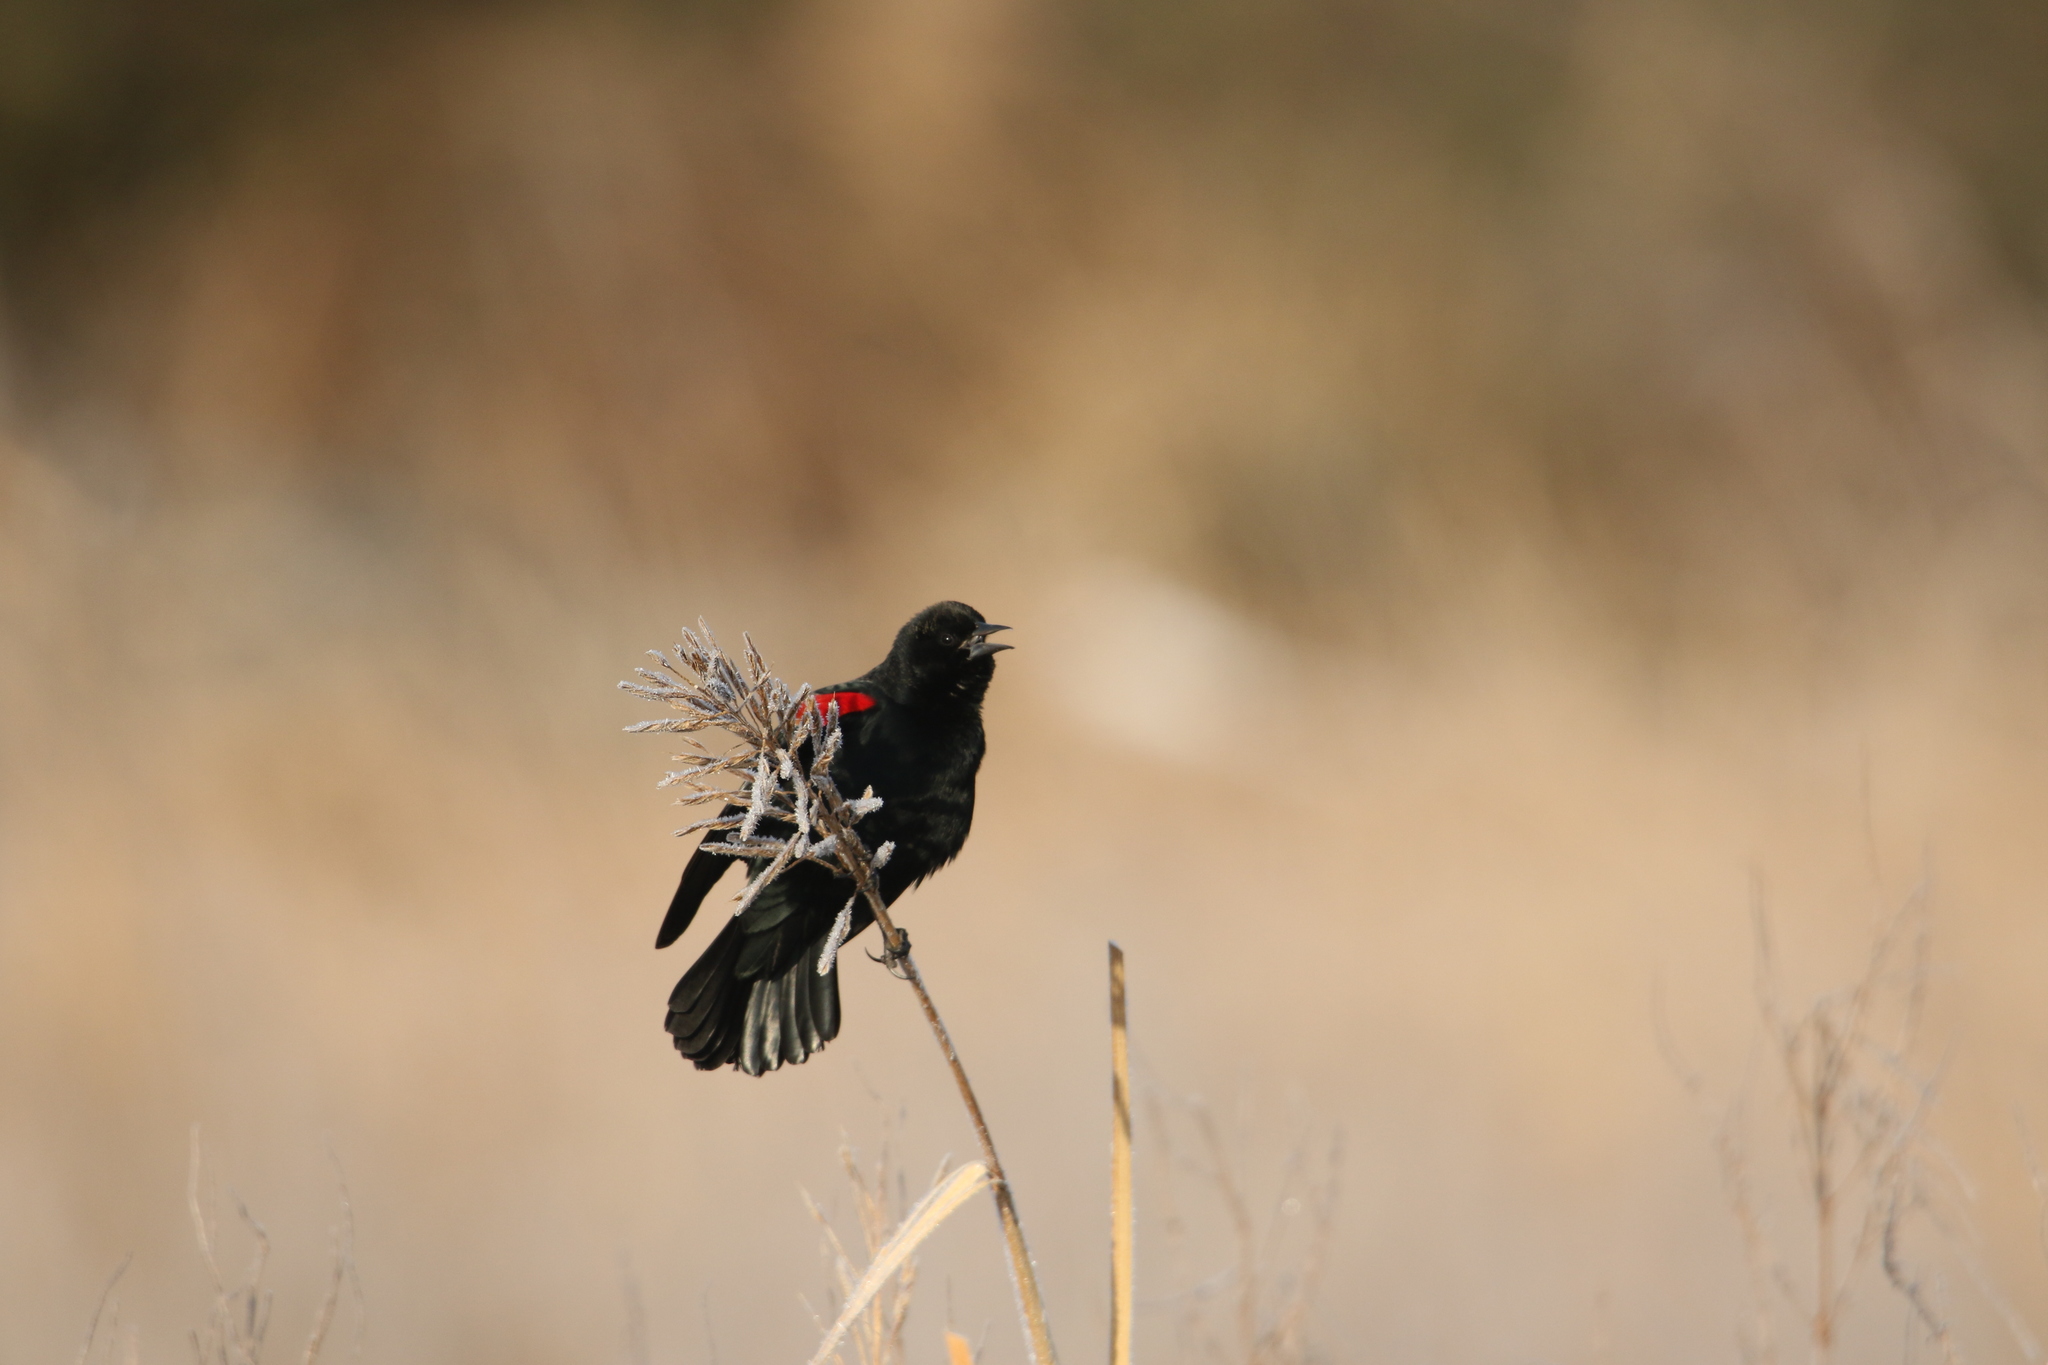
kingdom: Animalia
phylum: Chordata
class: Aves
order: Passeriformes
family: Icteridae
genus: Agelaius
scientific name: Agelaius phoeniceus
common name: Red-winged blackbird
